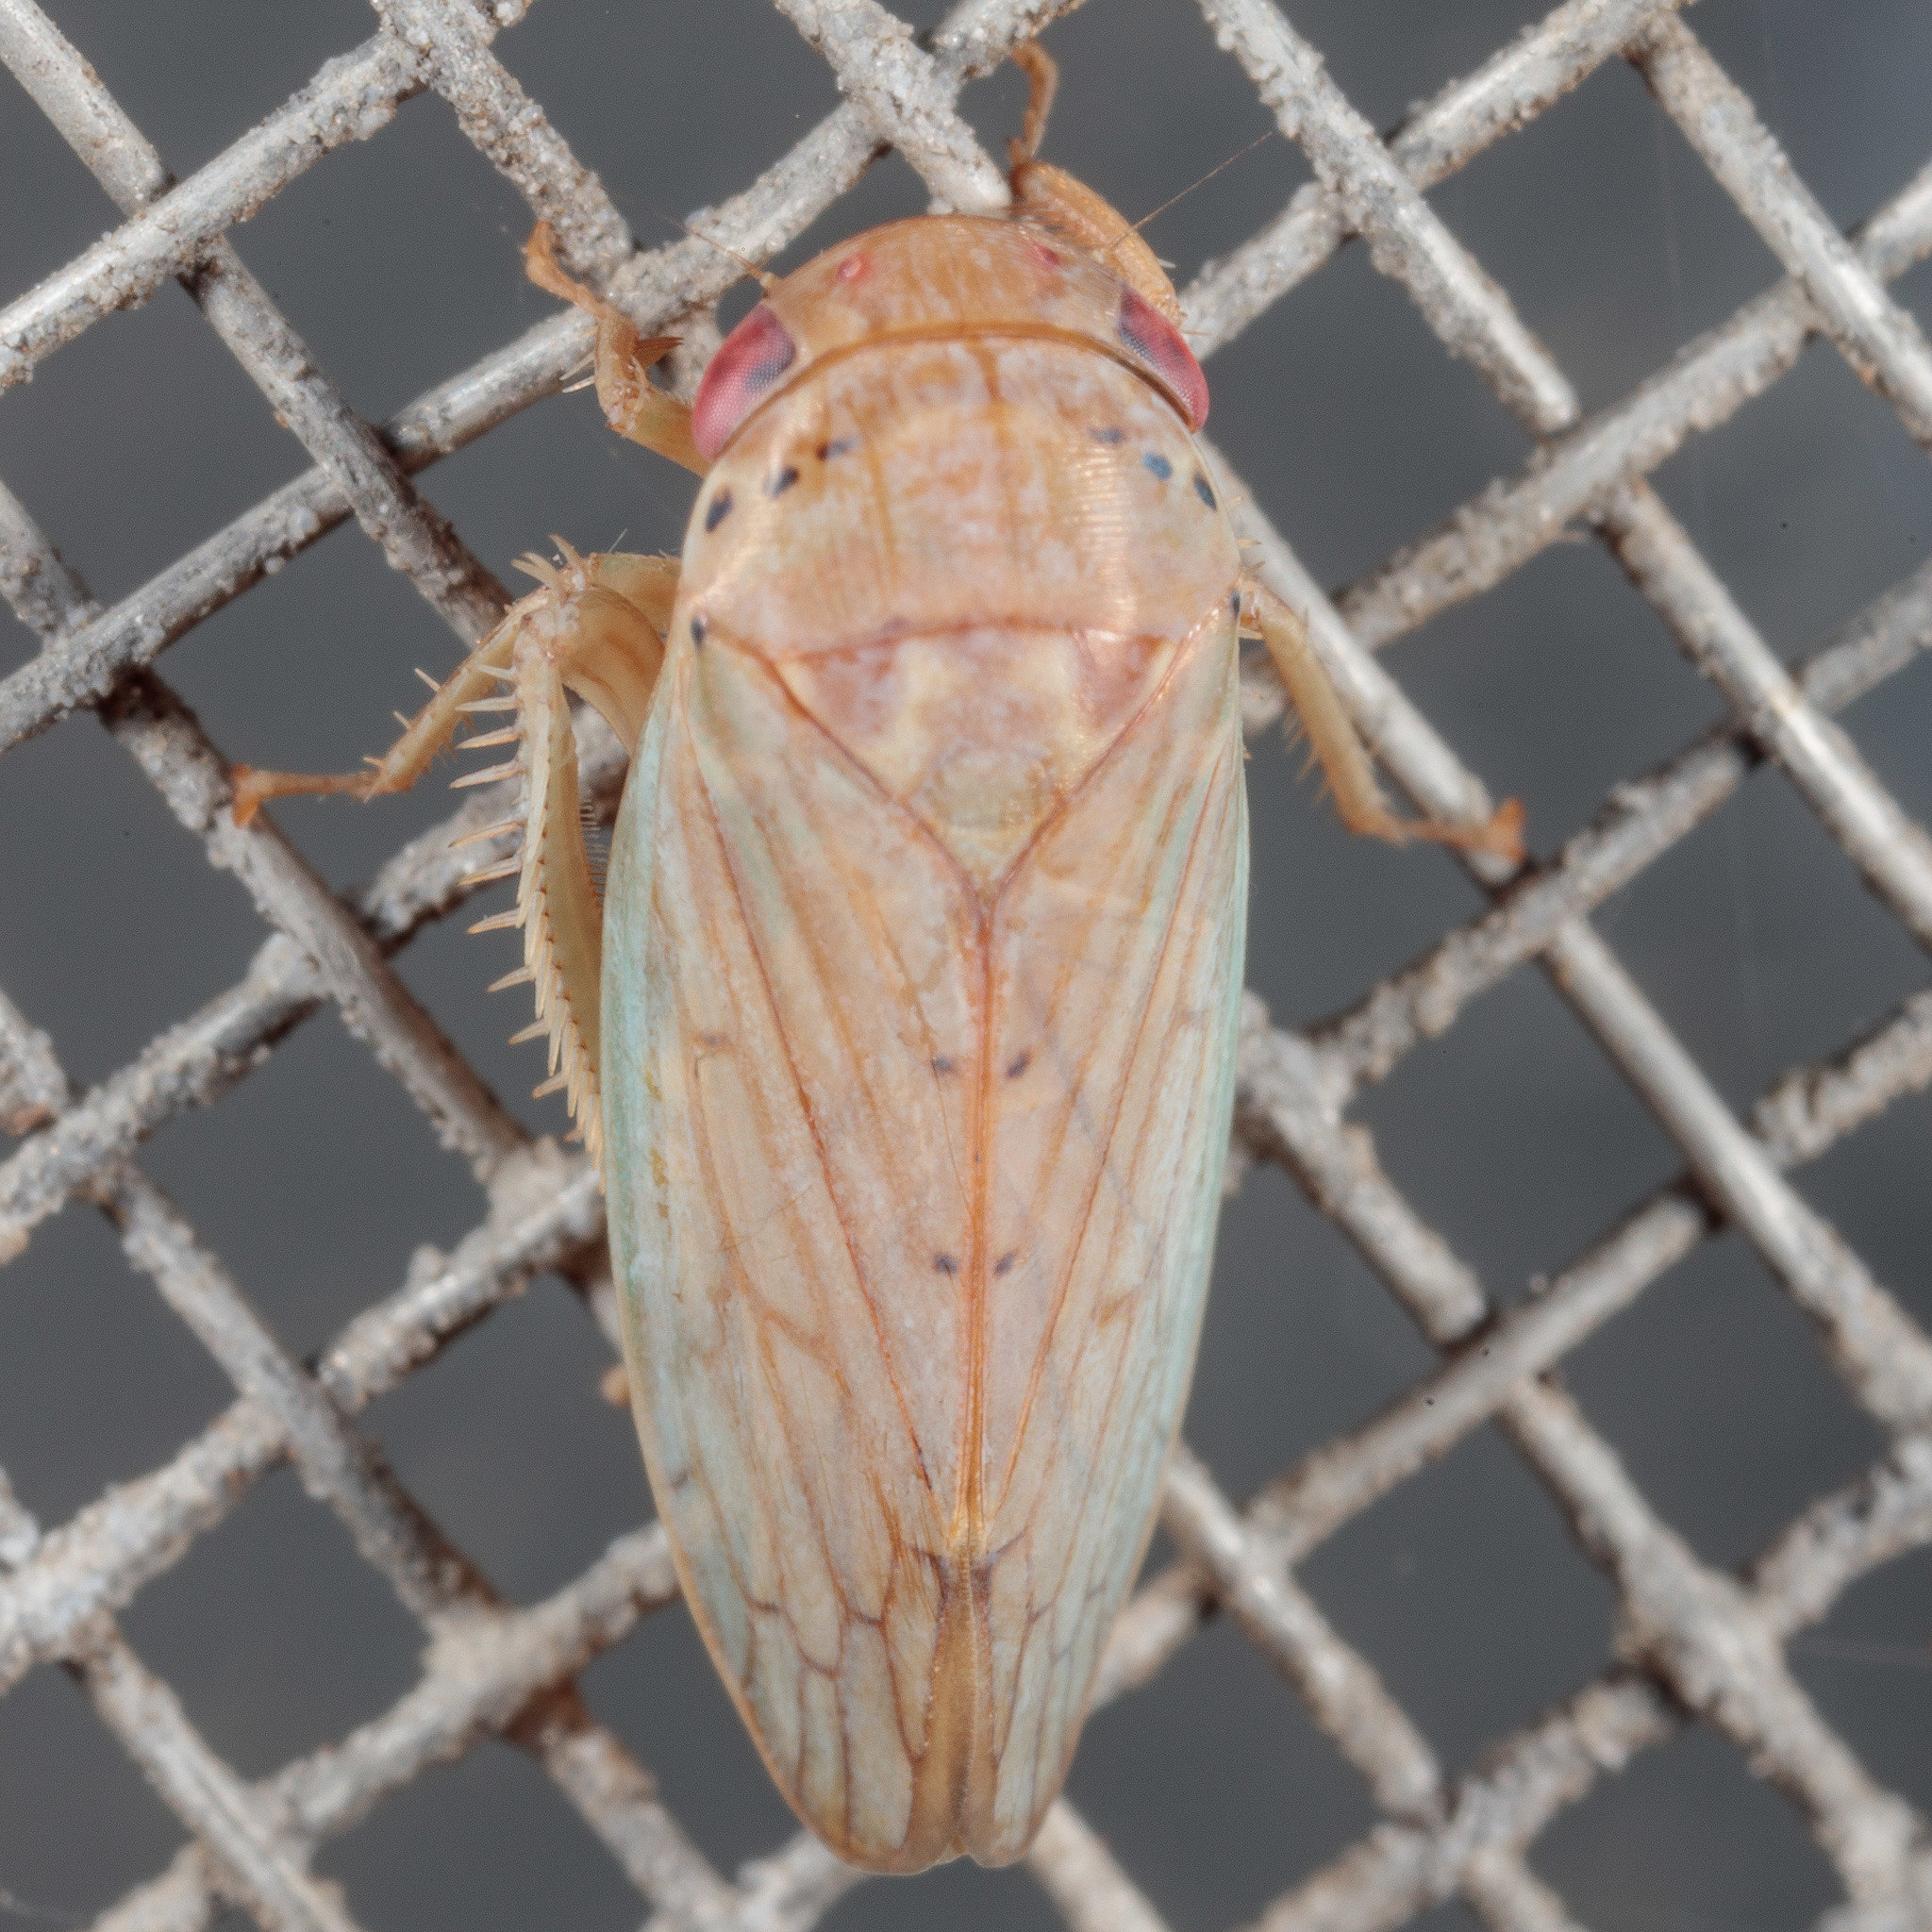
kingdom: Animalia
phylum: Arthropoda
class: Insecta
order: Hemiptera
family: Cicadellidae
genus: Polana
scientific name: Polana quadrinotata
